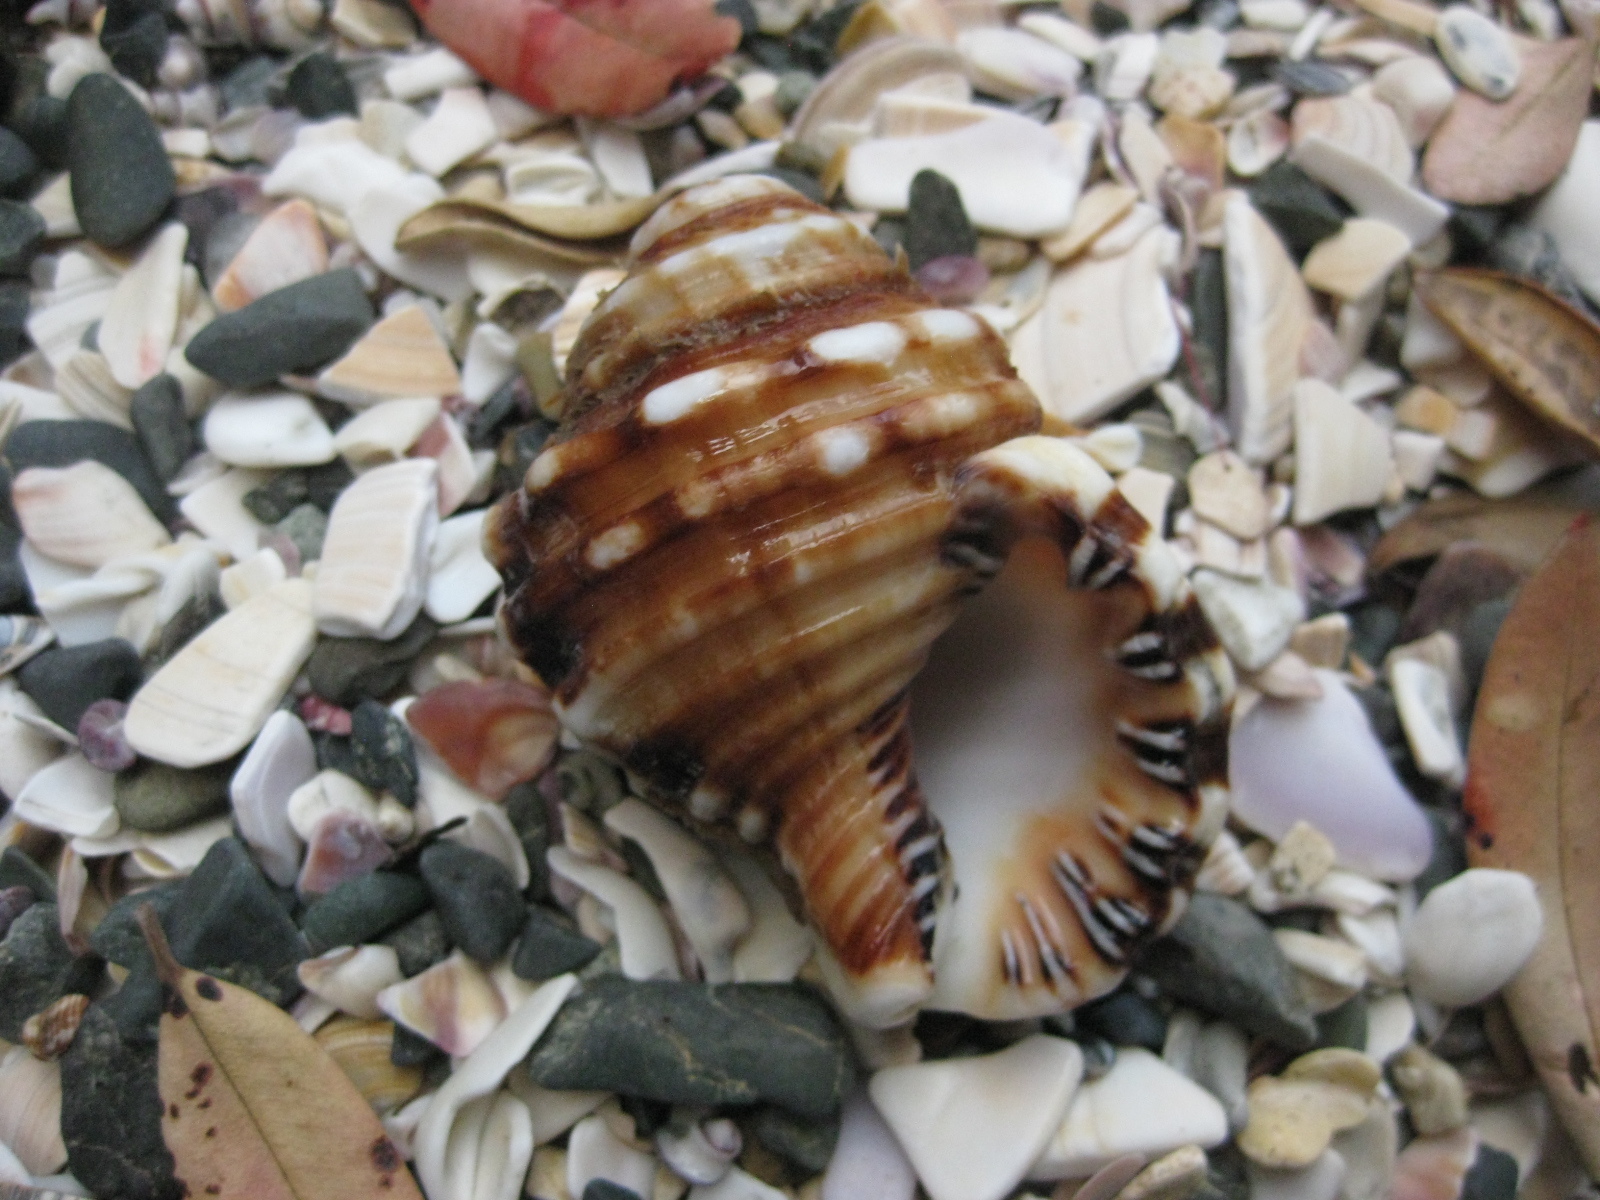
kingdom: Animalia
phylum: Mollusca
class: Gastropoda
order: Littorinimorpha
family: Cymatiidae
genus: Monoplex
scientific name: Monoplex parthenopeus
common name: Giant triton
